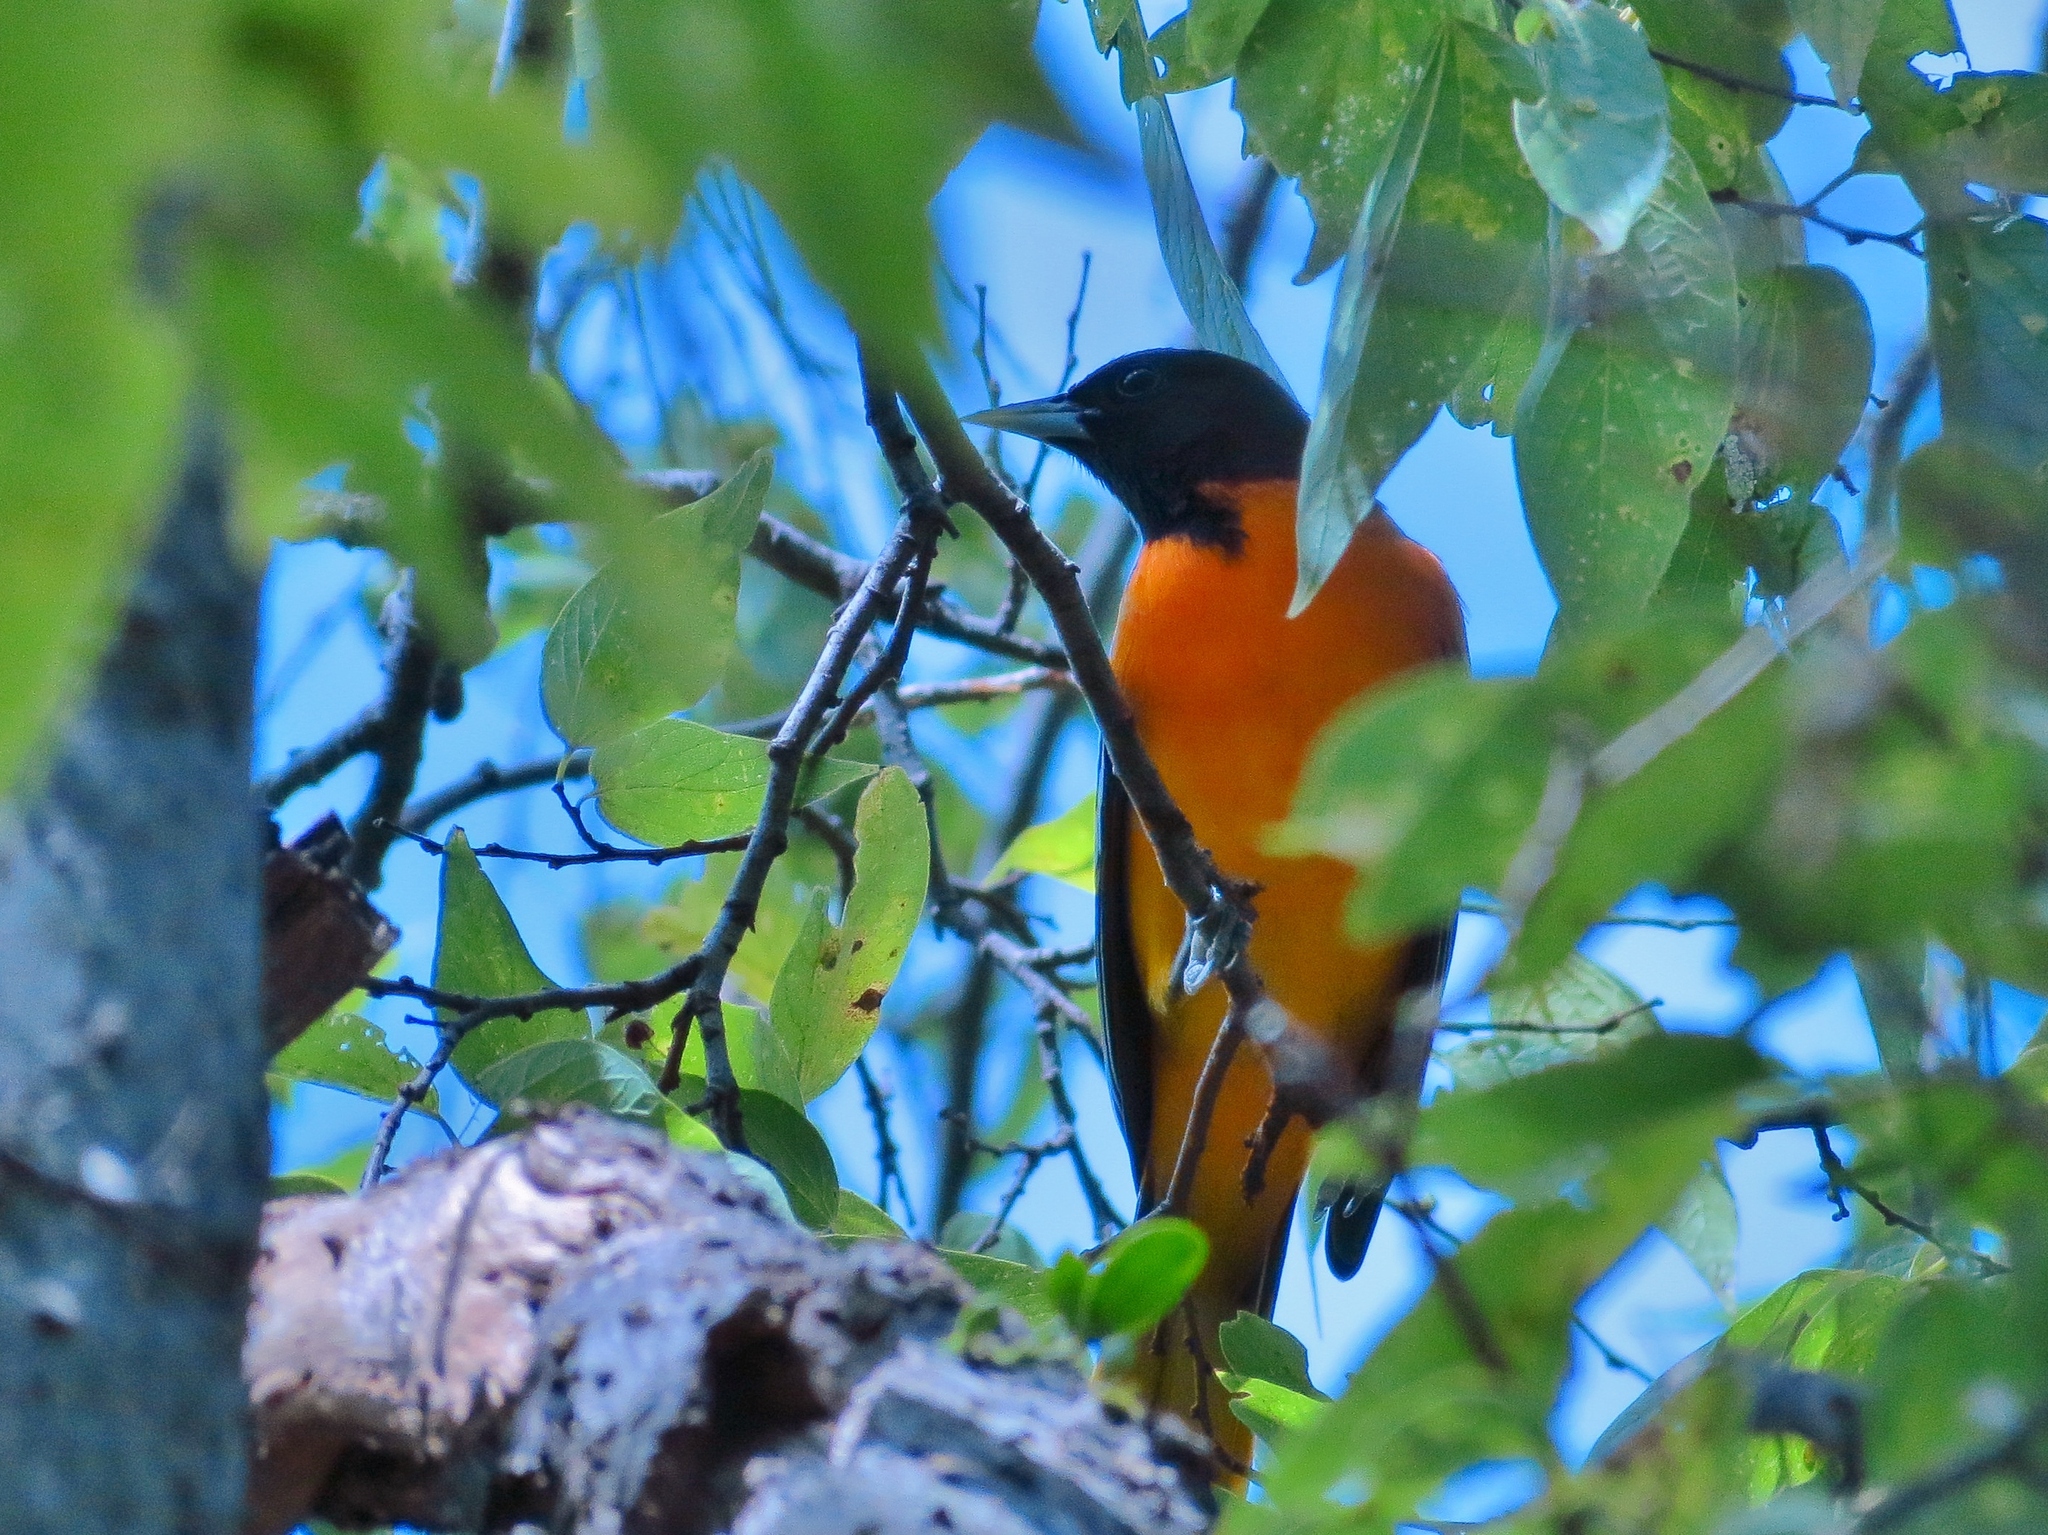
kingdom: Animalia
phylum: Chordata
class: Aves
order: Passeriformes
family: Icteridae
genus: Icterus
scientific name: Icterus galbula
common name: Baltimore oriole
